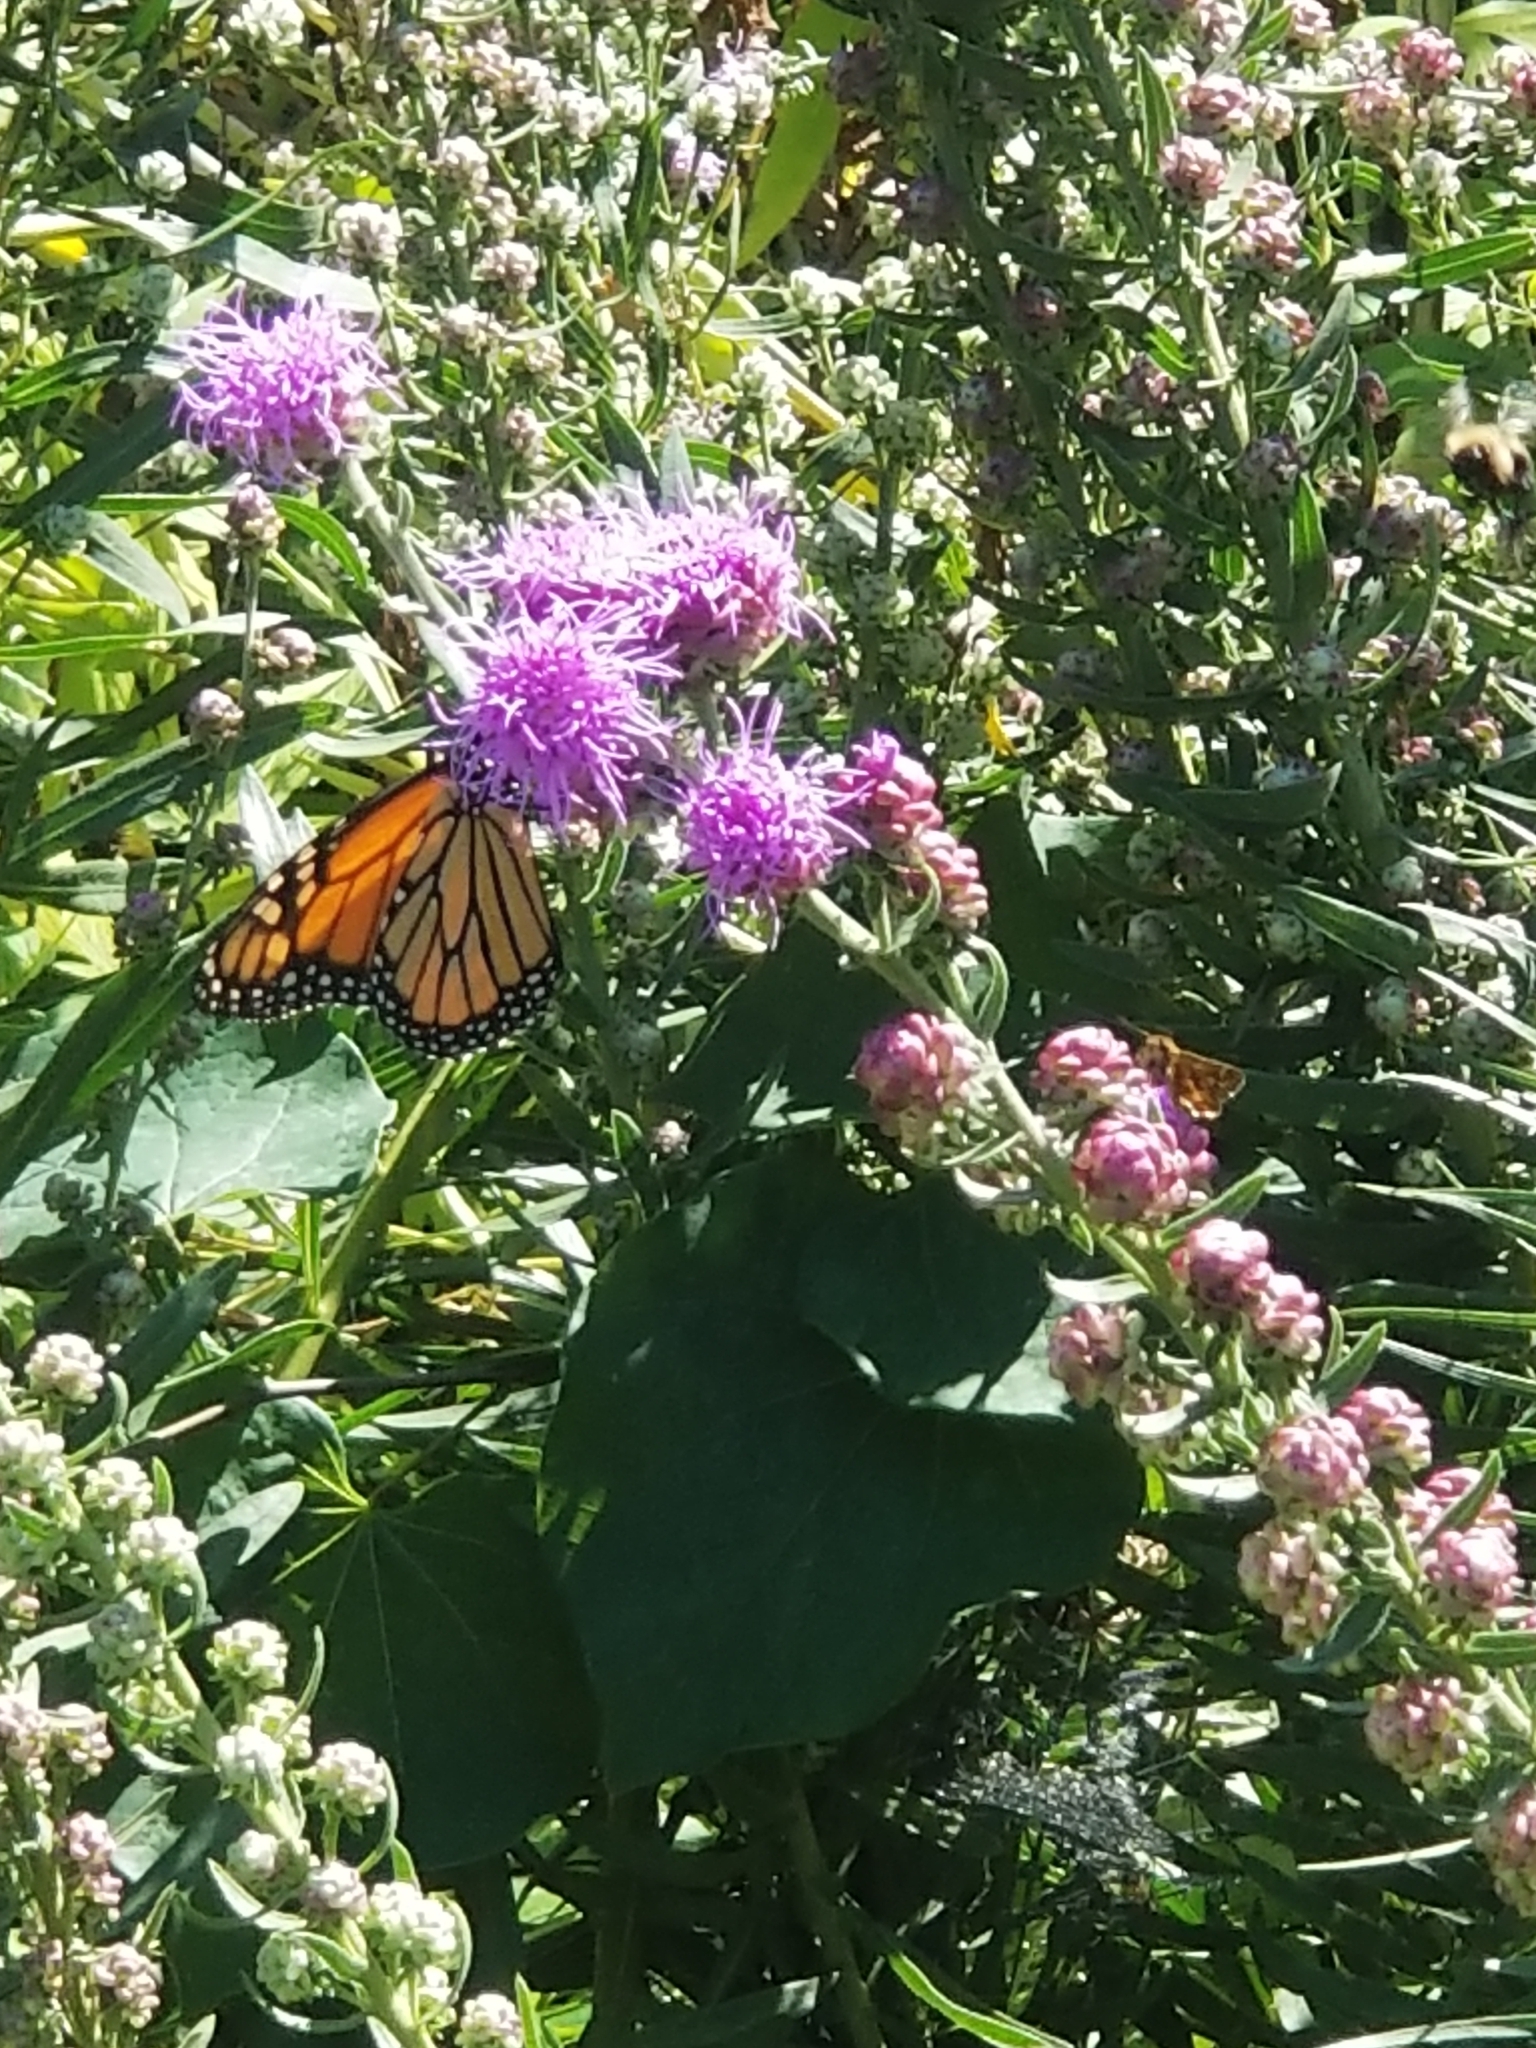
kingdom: Animalia
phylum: Arthropoda
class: Insecta
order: Lepidoptera
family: Nymphalidae
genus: Danaus
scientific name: Danaus plexippus
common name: Monarch
